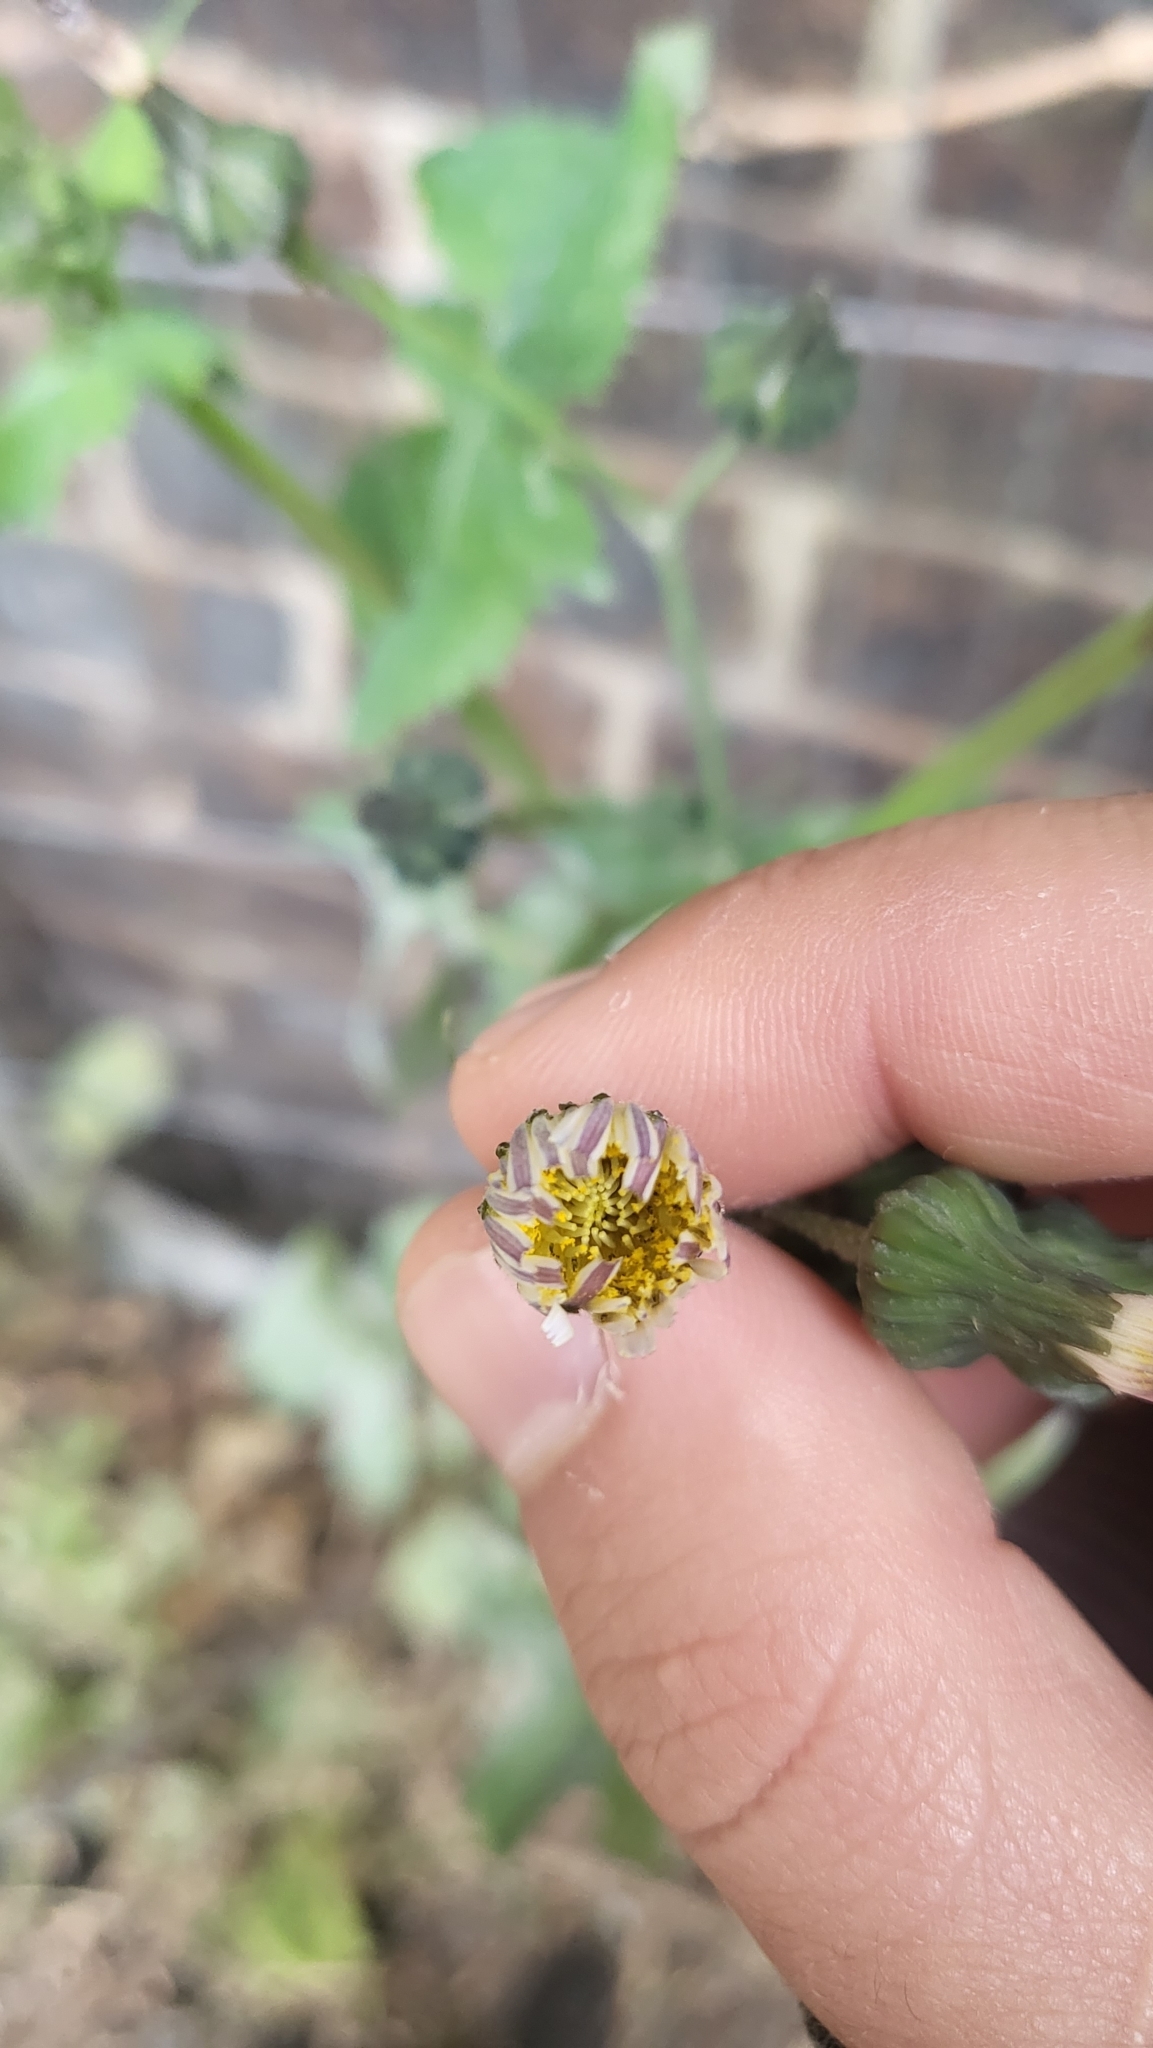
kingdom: Plantae
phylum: Tracheophyta
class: Magnoliopsida
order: Asterales
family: Asteraceae
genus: Sonchus
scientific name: Sonchus oleraceus
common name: Common sowthistle
